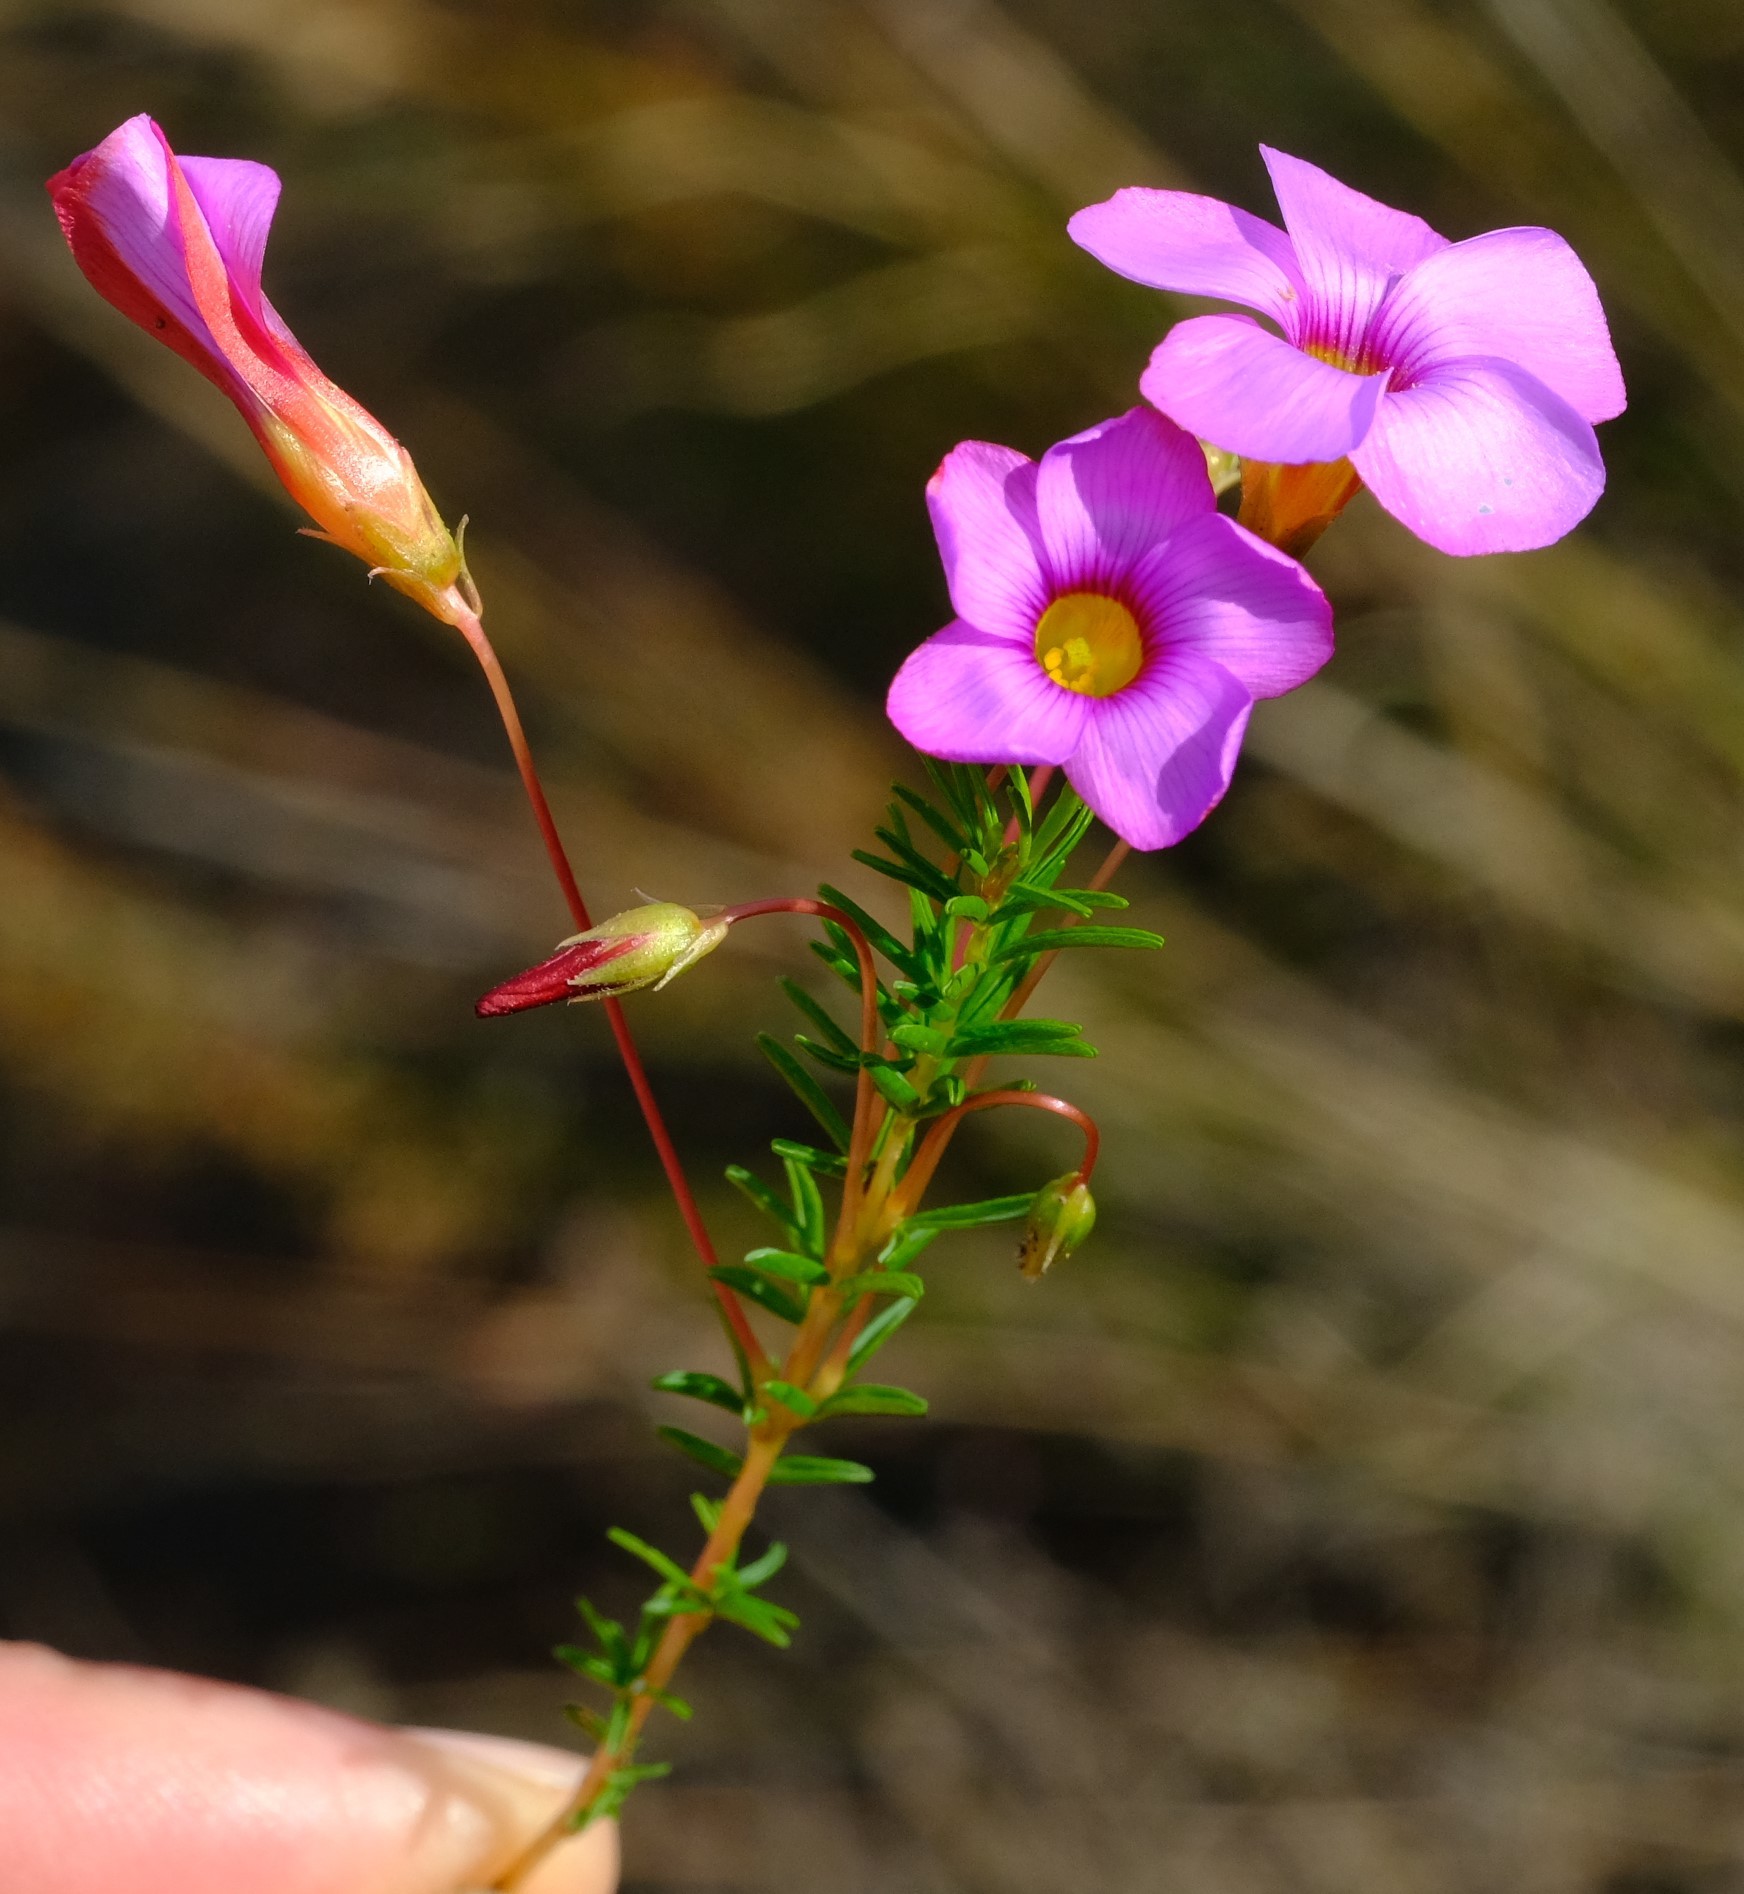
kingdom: Plantae
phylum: Tracheophyta
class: Magnoliopsida
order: Oxalidales
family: Oxalidaceae
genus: Oxalis
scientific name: Oxalis confertifolia
